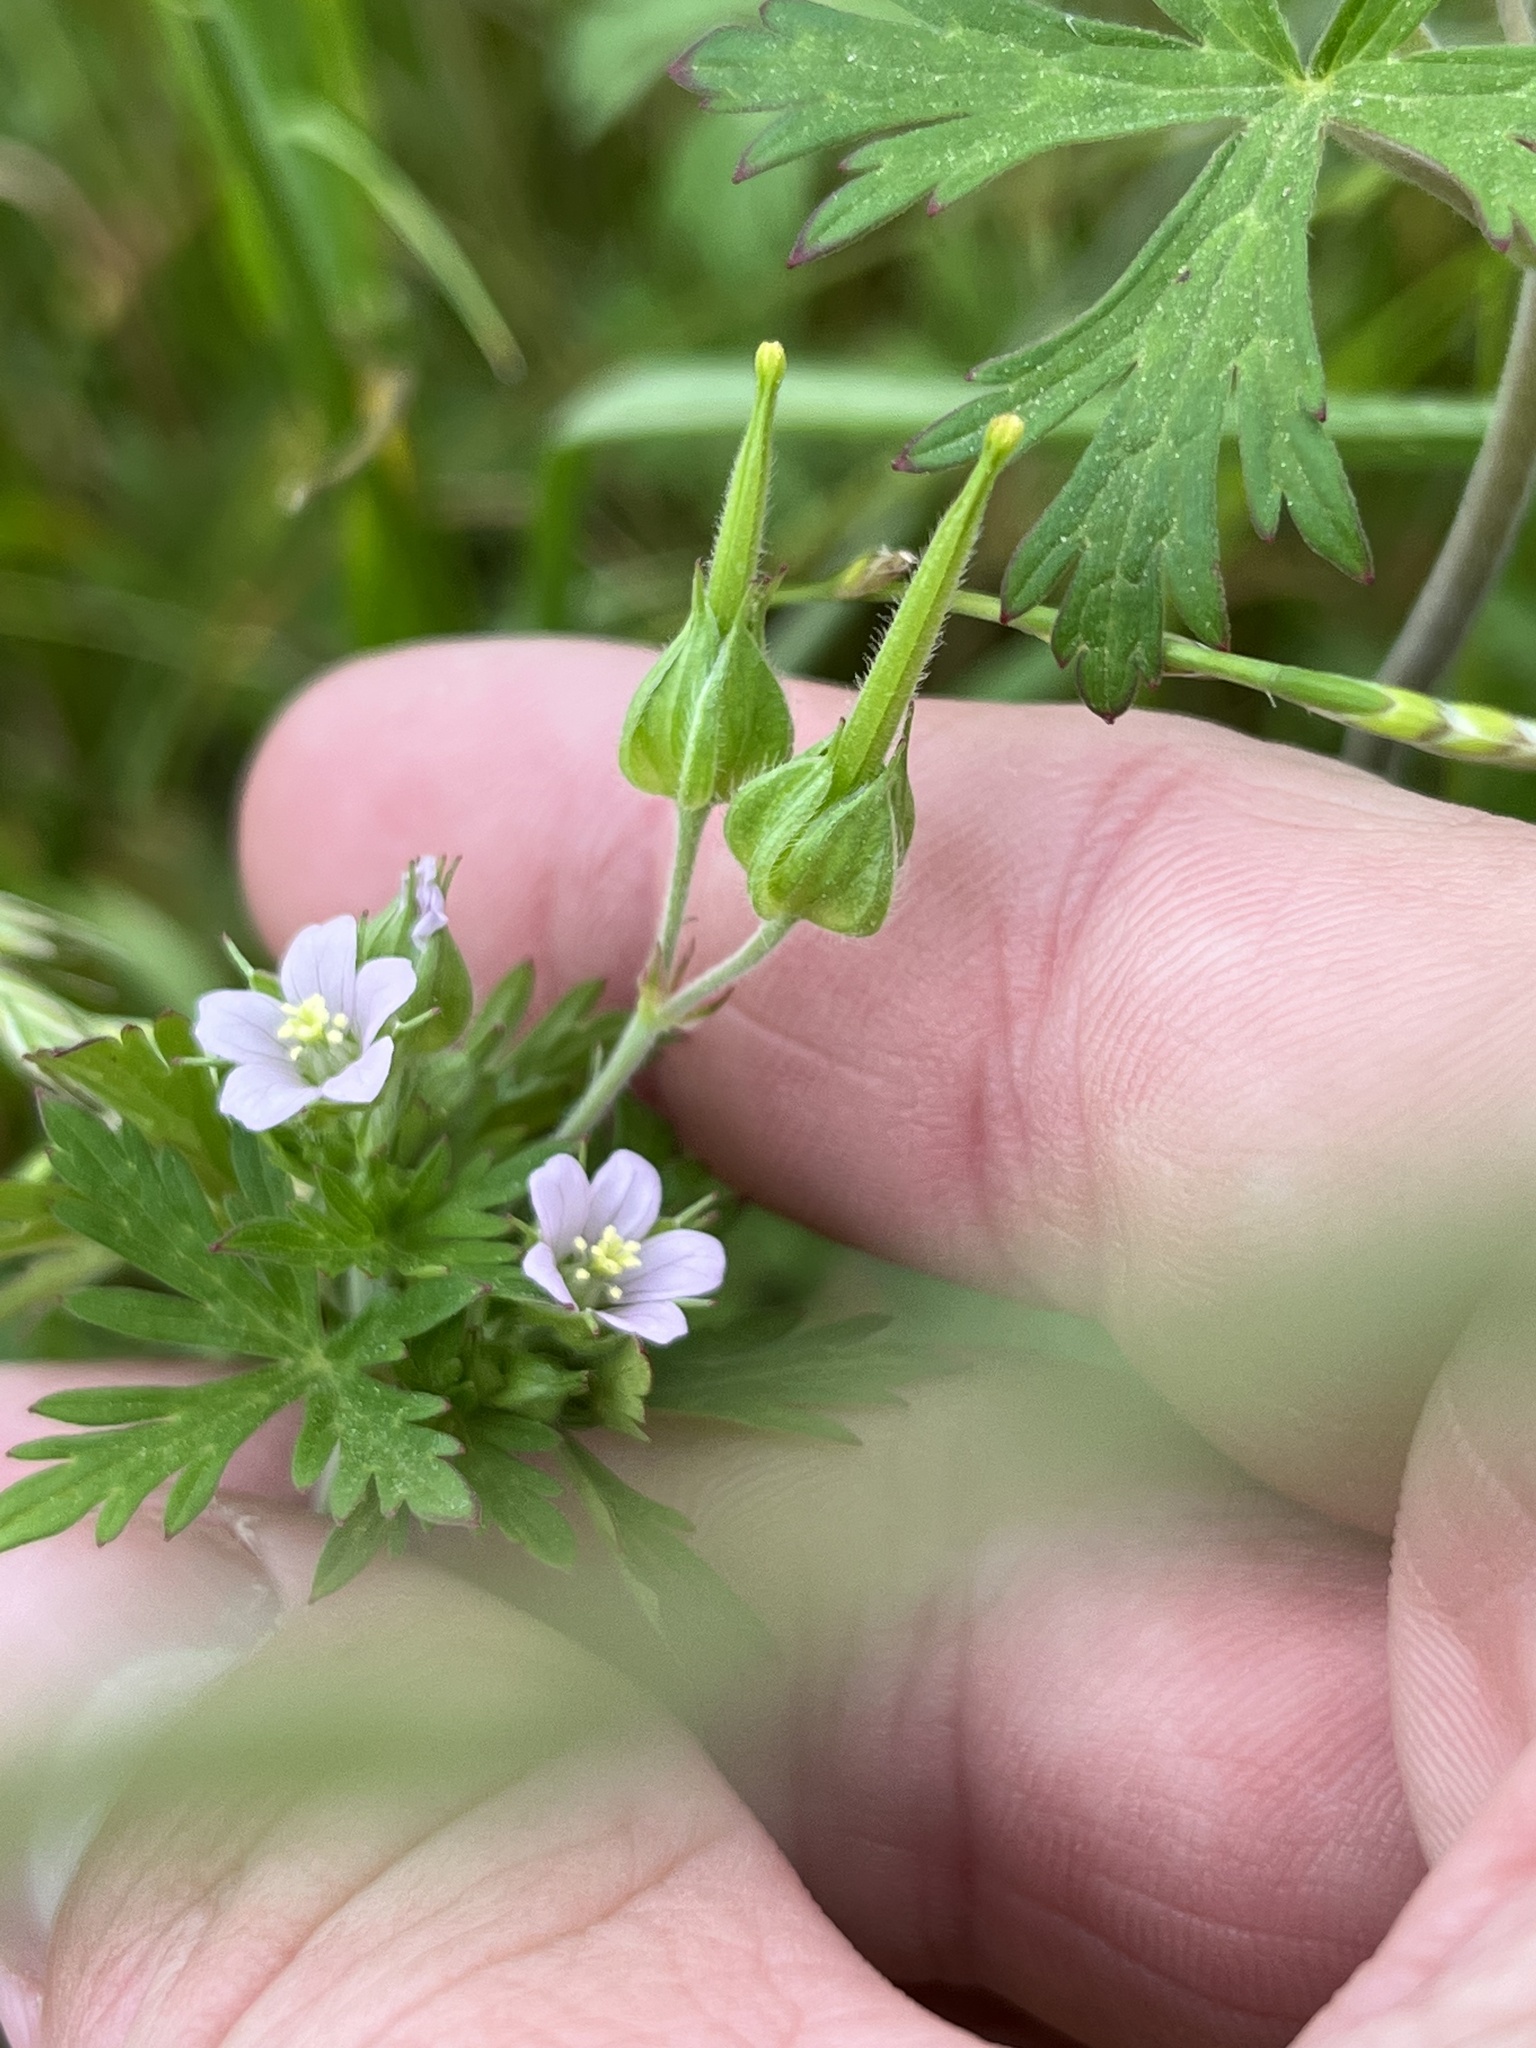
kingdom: Plantae
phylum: Tracheophyta
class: Magnoliopsida
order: Geraniales
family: Geraniaceae
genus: Geranium
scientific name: Geranium carolinianum
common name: Carolina crane's-bill
